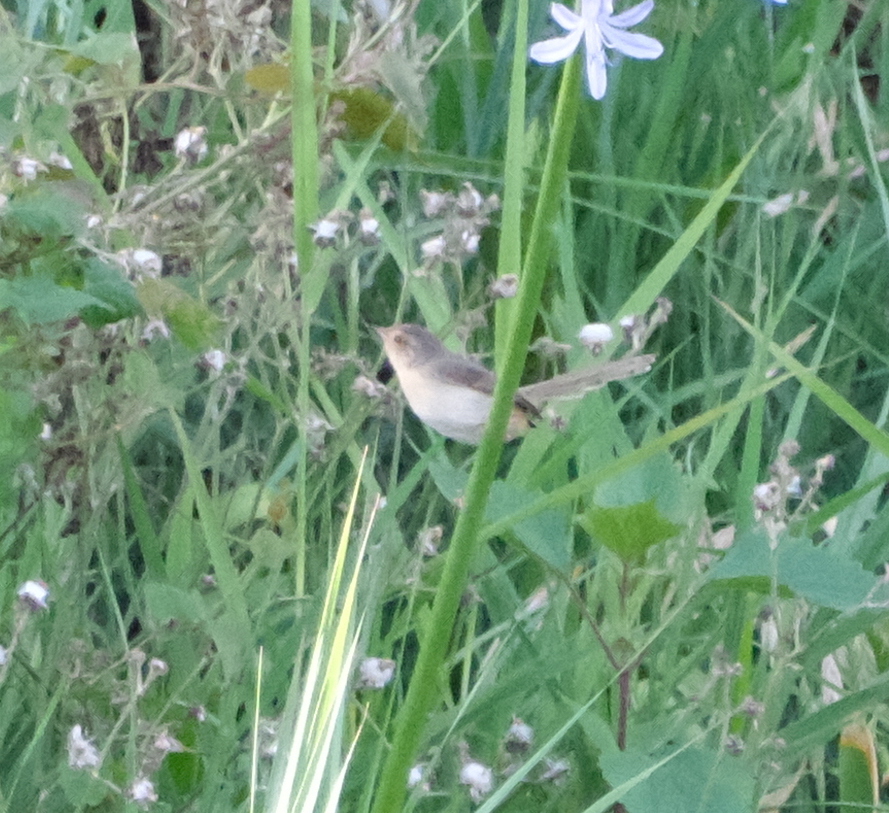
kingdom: Animalia
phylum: Chordata
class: Aves
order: Passeriformes
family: Cisticolidae
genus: Prinia
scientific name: Prinia inornata
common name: Plain prinia
